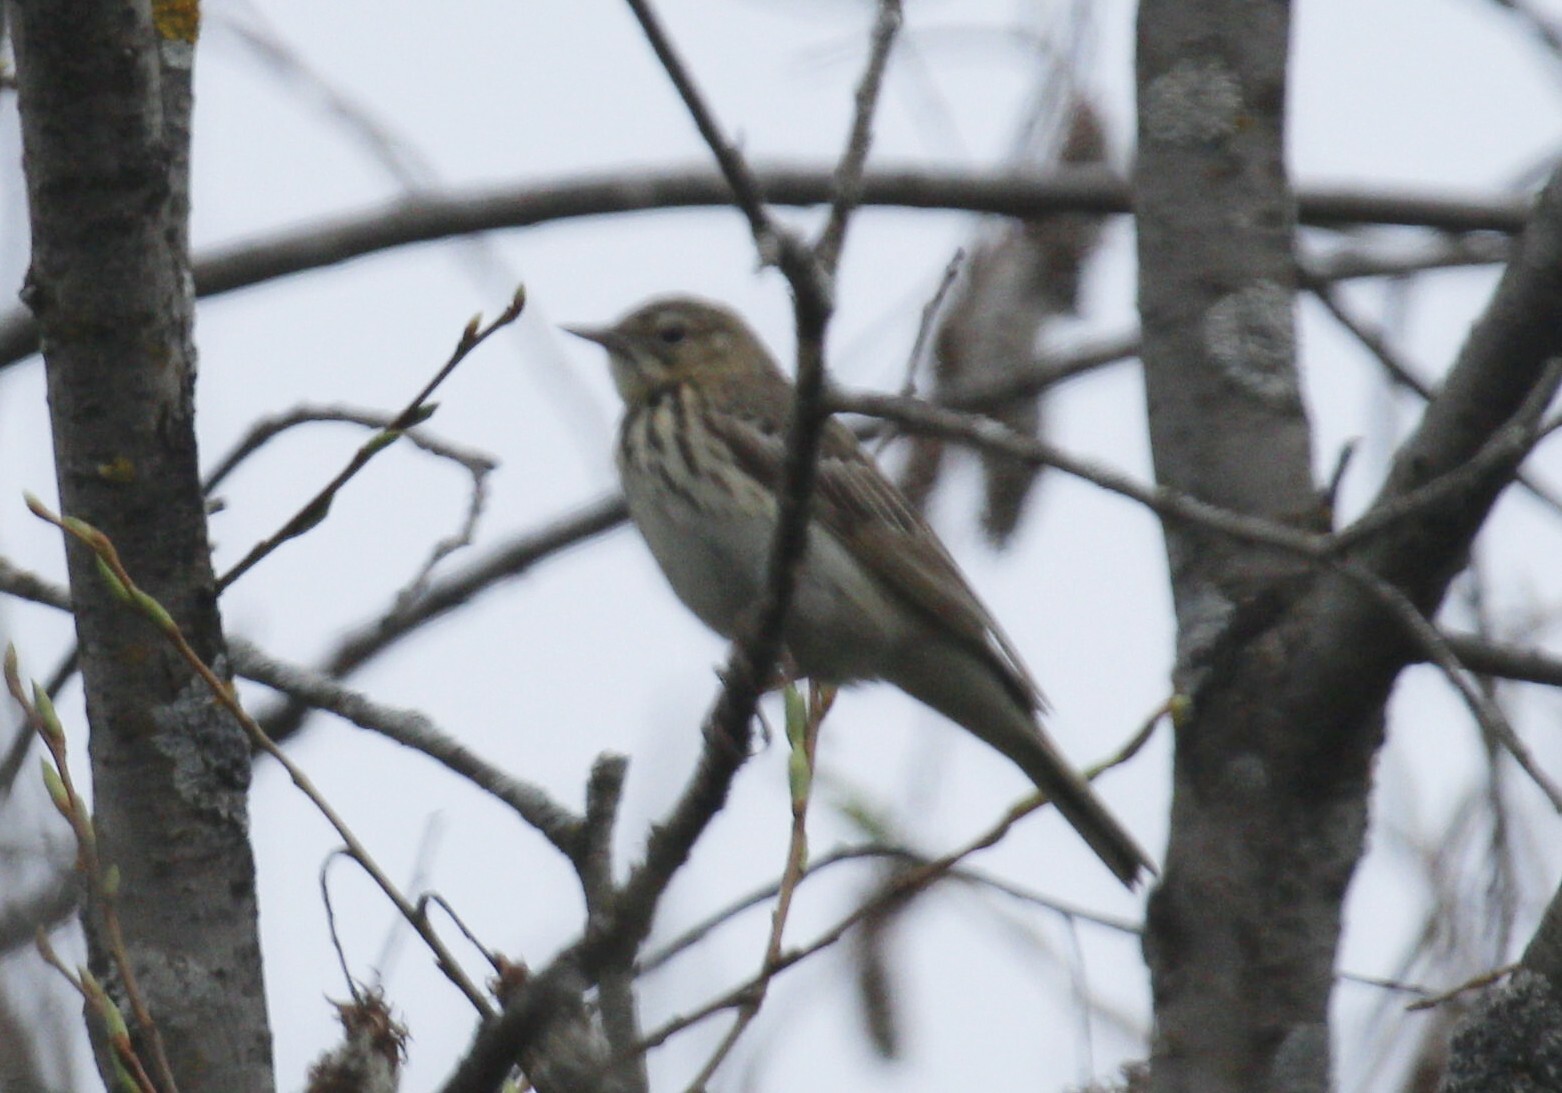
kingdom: Animalia
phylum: Chordata
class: Aves
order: Passeriformes
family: Motacillidae
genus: Anthus
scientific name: Anthus trivialis
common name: Tree pipit
